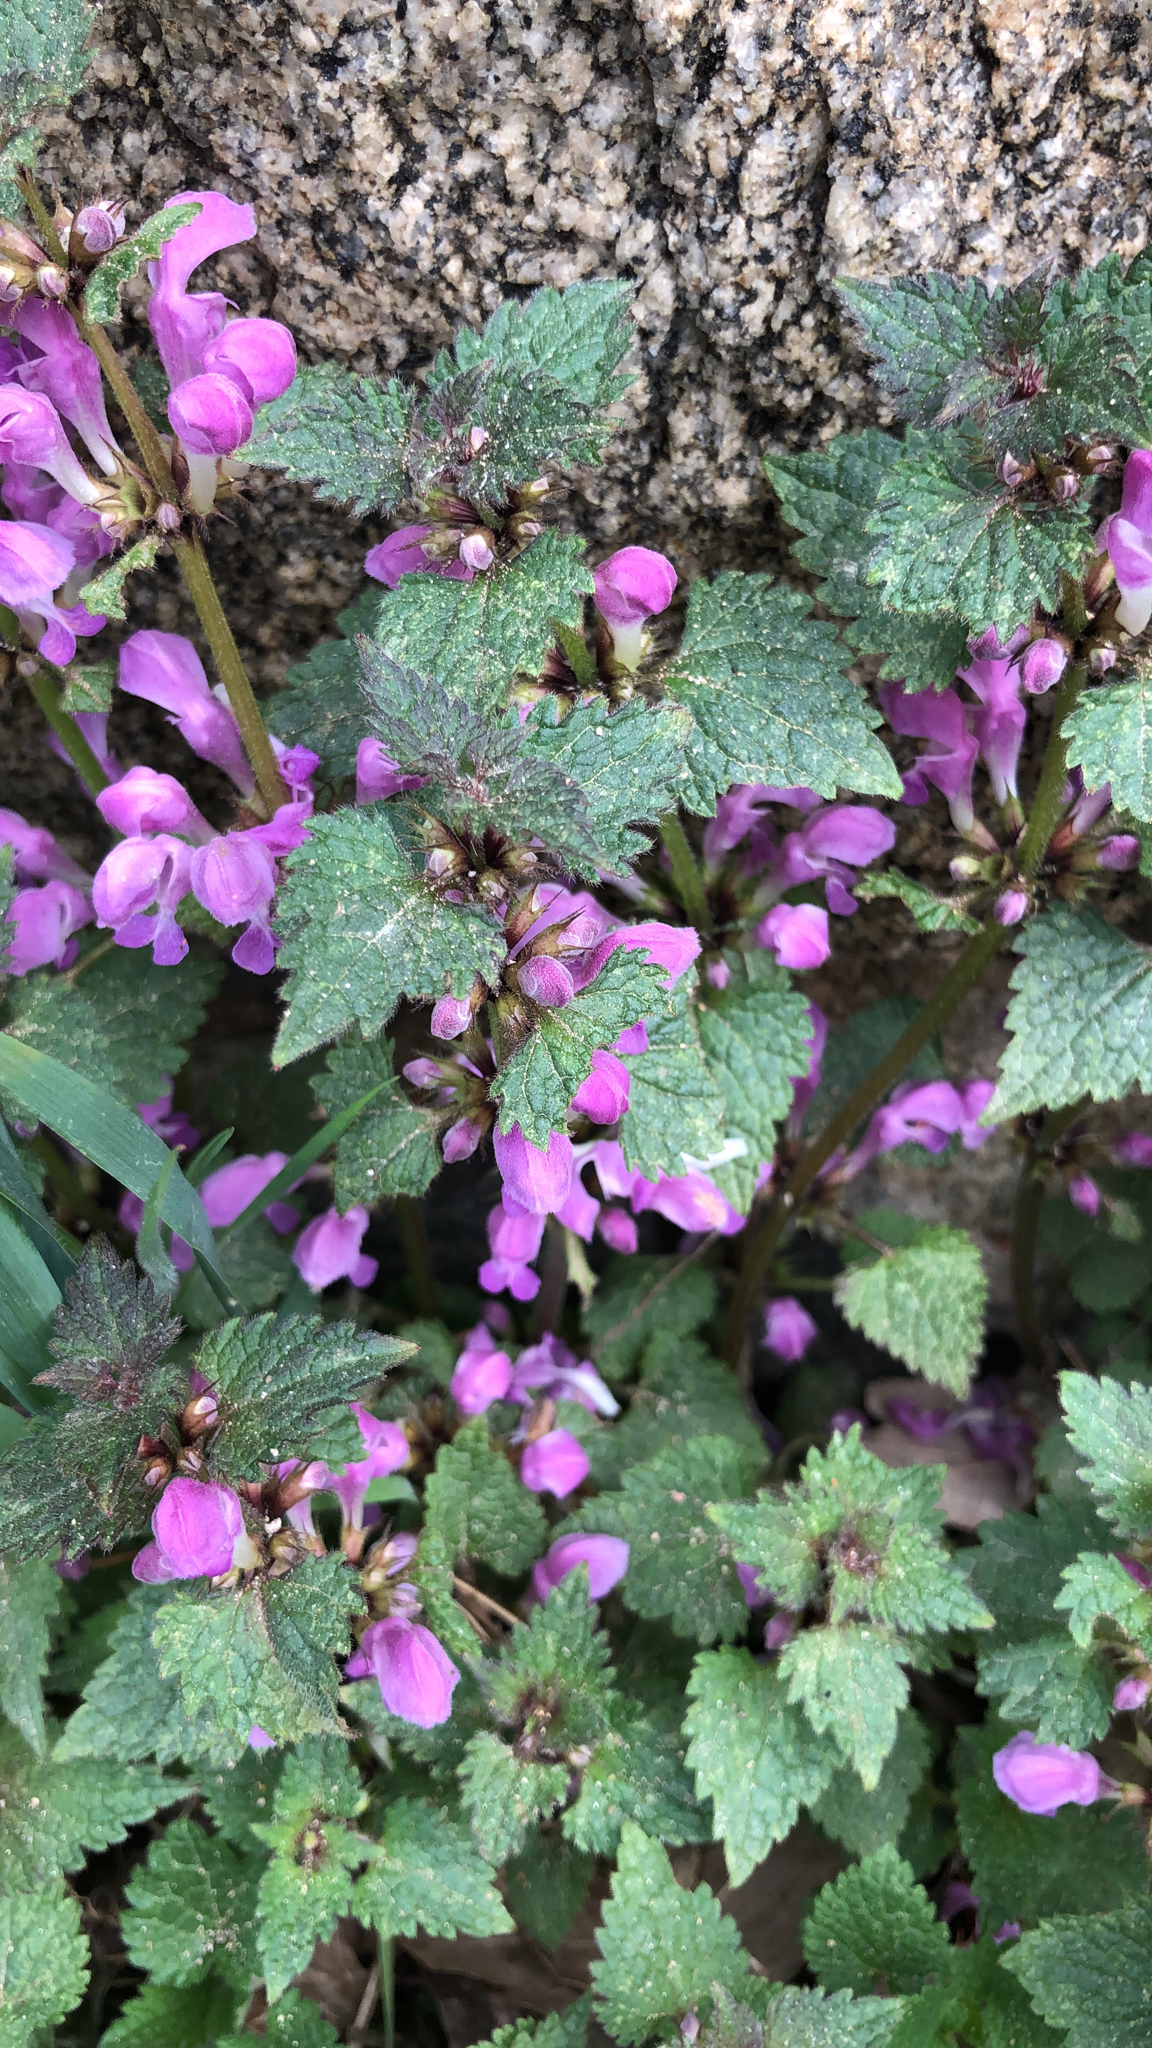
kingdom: Plantae
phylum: Tracheophyta
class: Magnoliopsida
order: Lamiales
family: Lamiaceae
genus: Lamium
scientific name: Lamium maculatum
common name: Spotted dead-nettle
